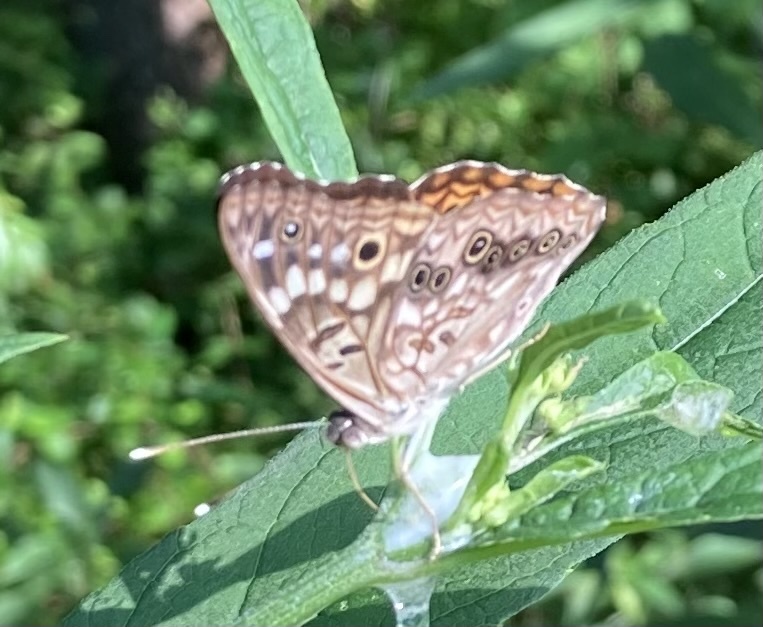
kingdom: Animalia
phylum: Arthropoda
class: Insecta
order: Lepidoptera
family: Nymphalidae
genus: Asterocampa
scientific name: Asterocampa celtis
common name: Hackberry emperor
